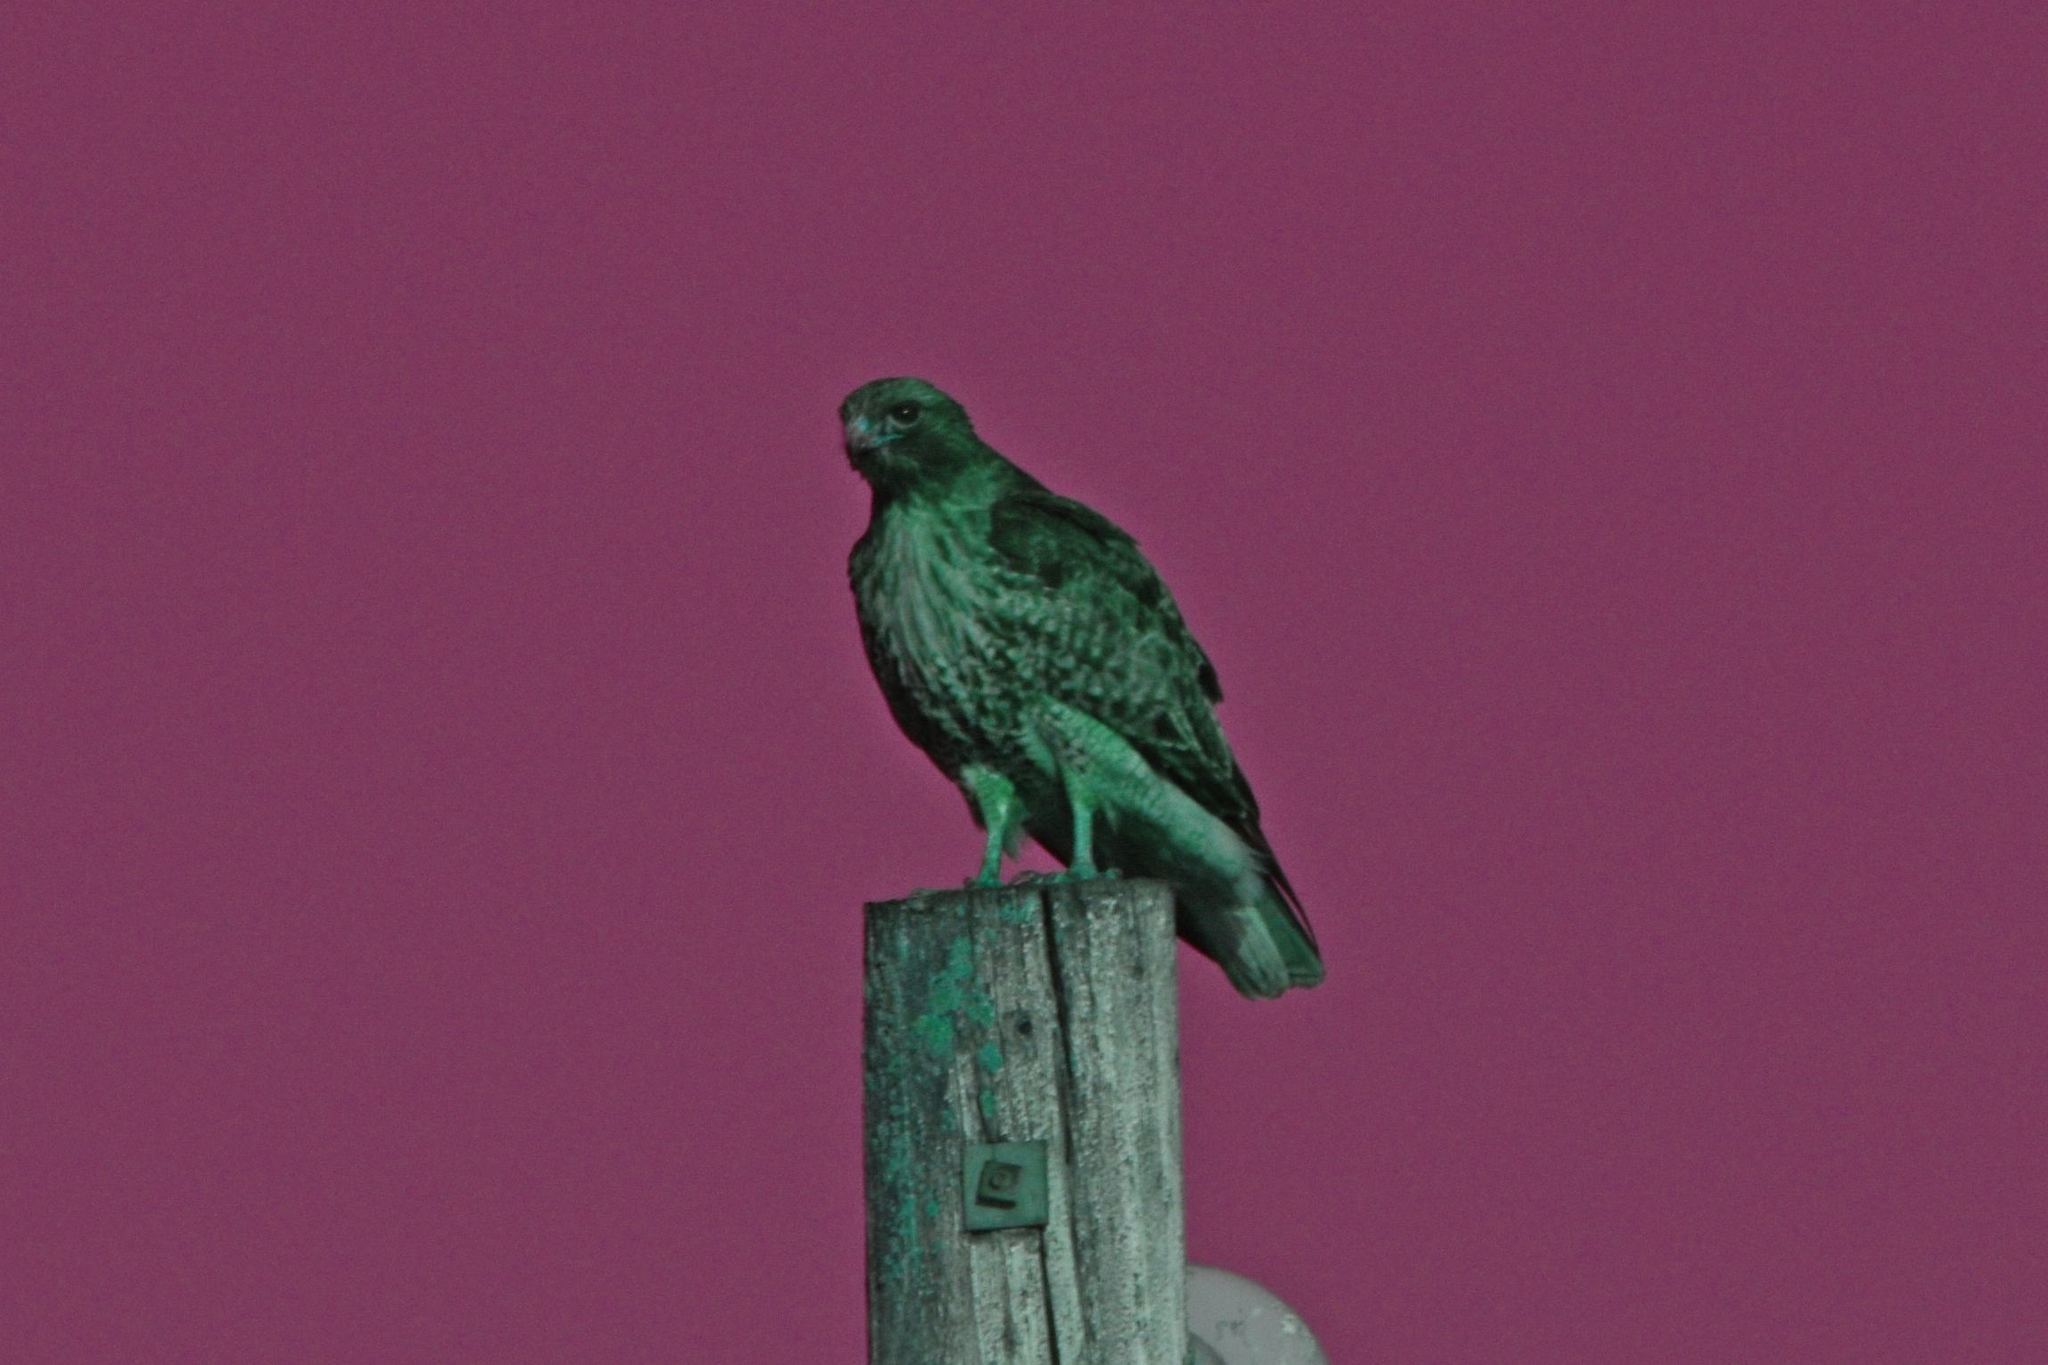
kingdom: Animalia
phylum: Chordata
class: Aves
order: Accipitriformes
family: Accipitridae
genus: Buteo
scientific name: Buteo jamaicensis
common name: Red-tailed hawk
